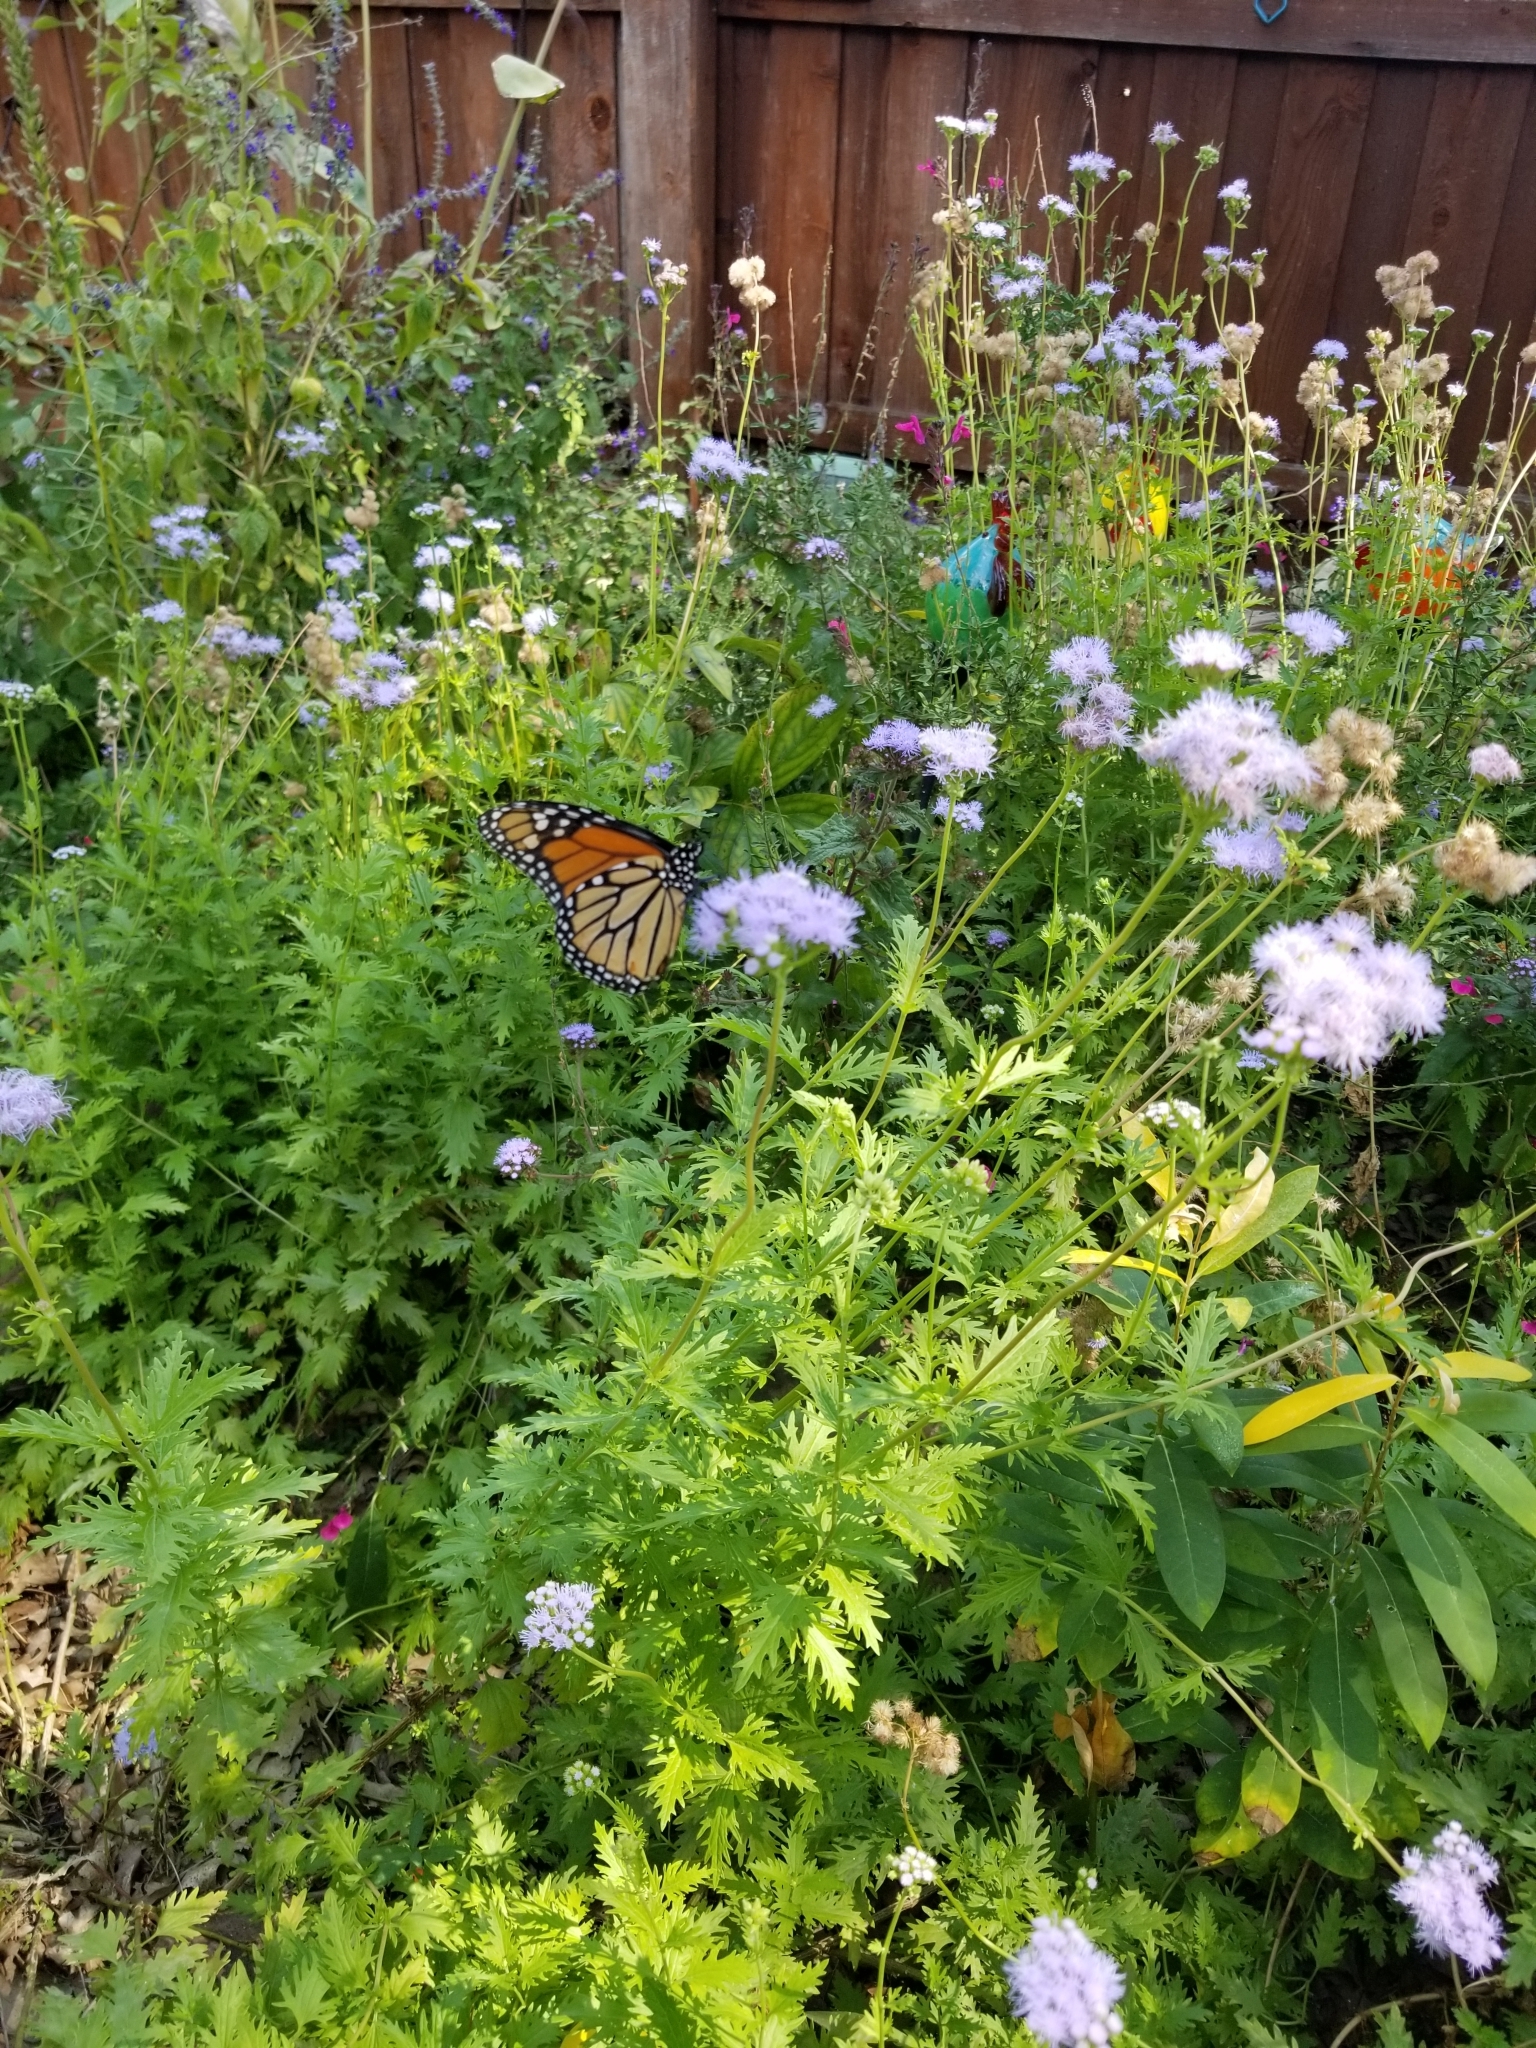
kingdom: Animalia
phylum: Arthropoda
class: Insecta
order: Lepidoptera
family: Nymphalidae
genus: Danaus
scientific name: Danaus plexippus
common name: Monarch
